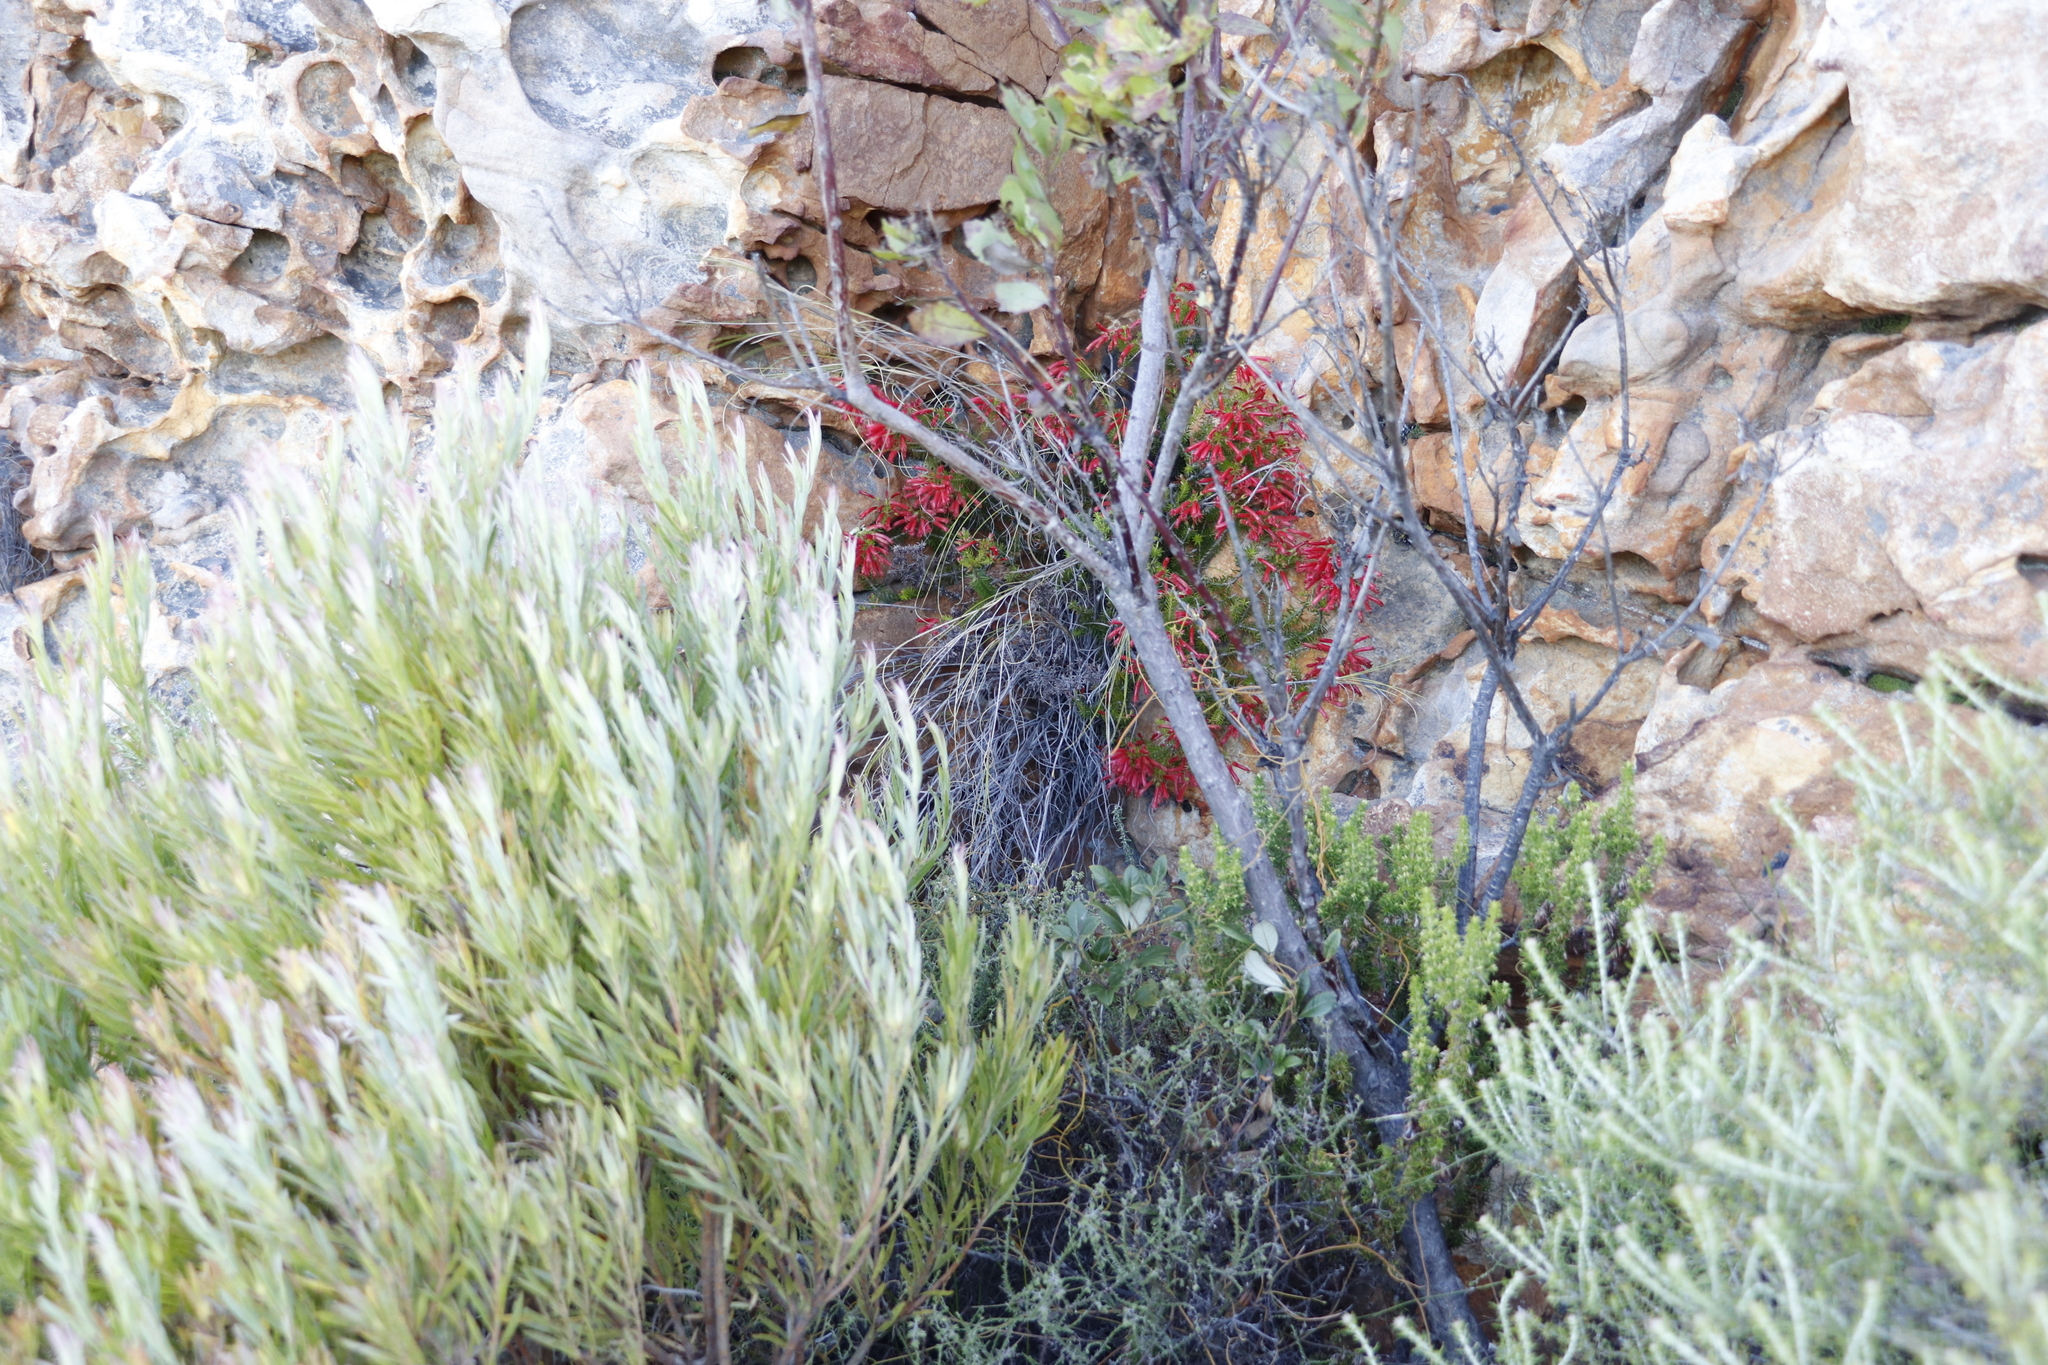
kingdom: Plantae
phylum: Tracheophyta
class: Magnoliopsida
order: Ericales
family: Ericaceae
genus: Erica
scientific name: Erica nevillei
